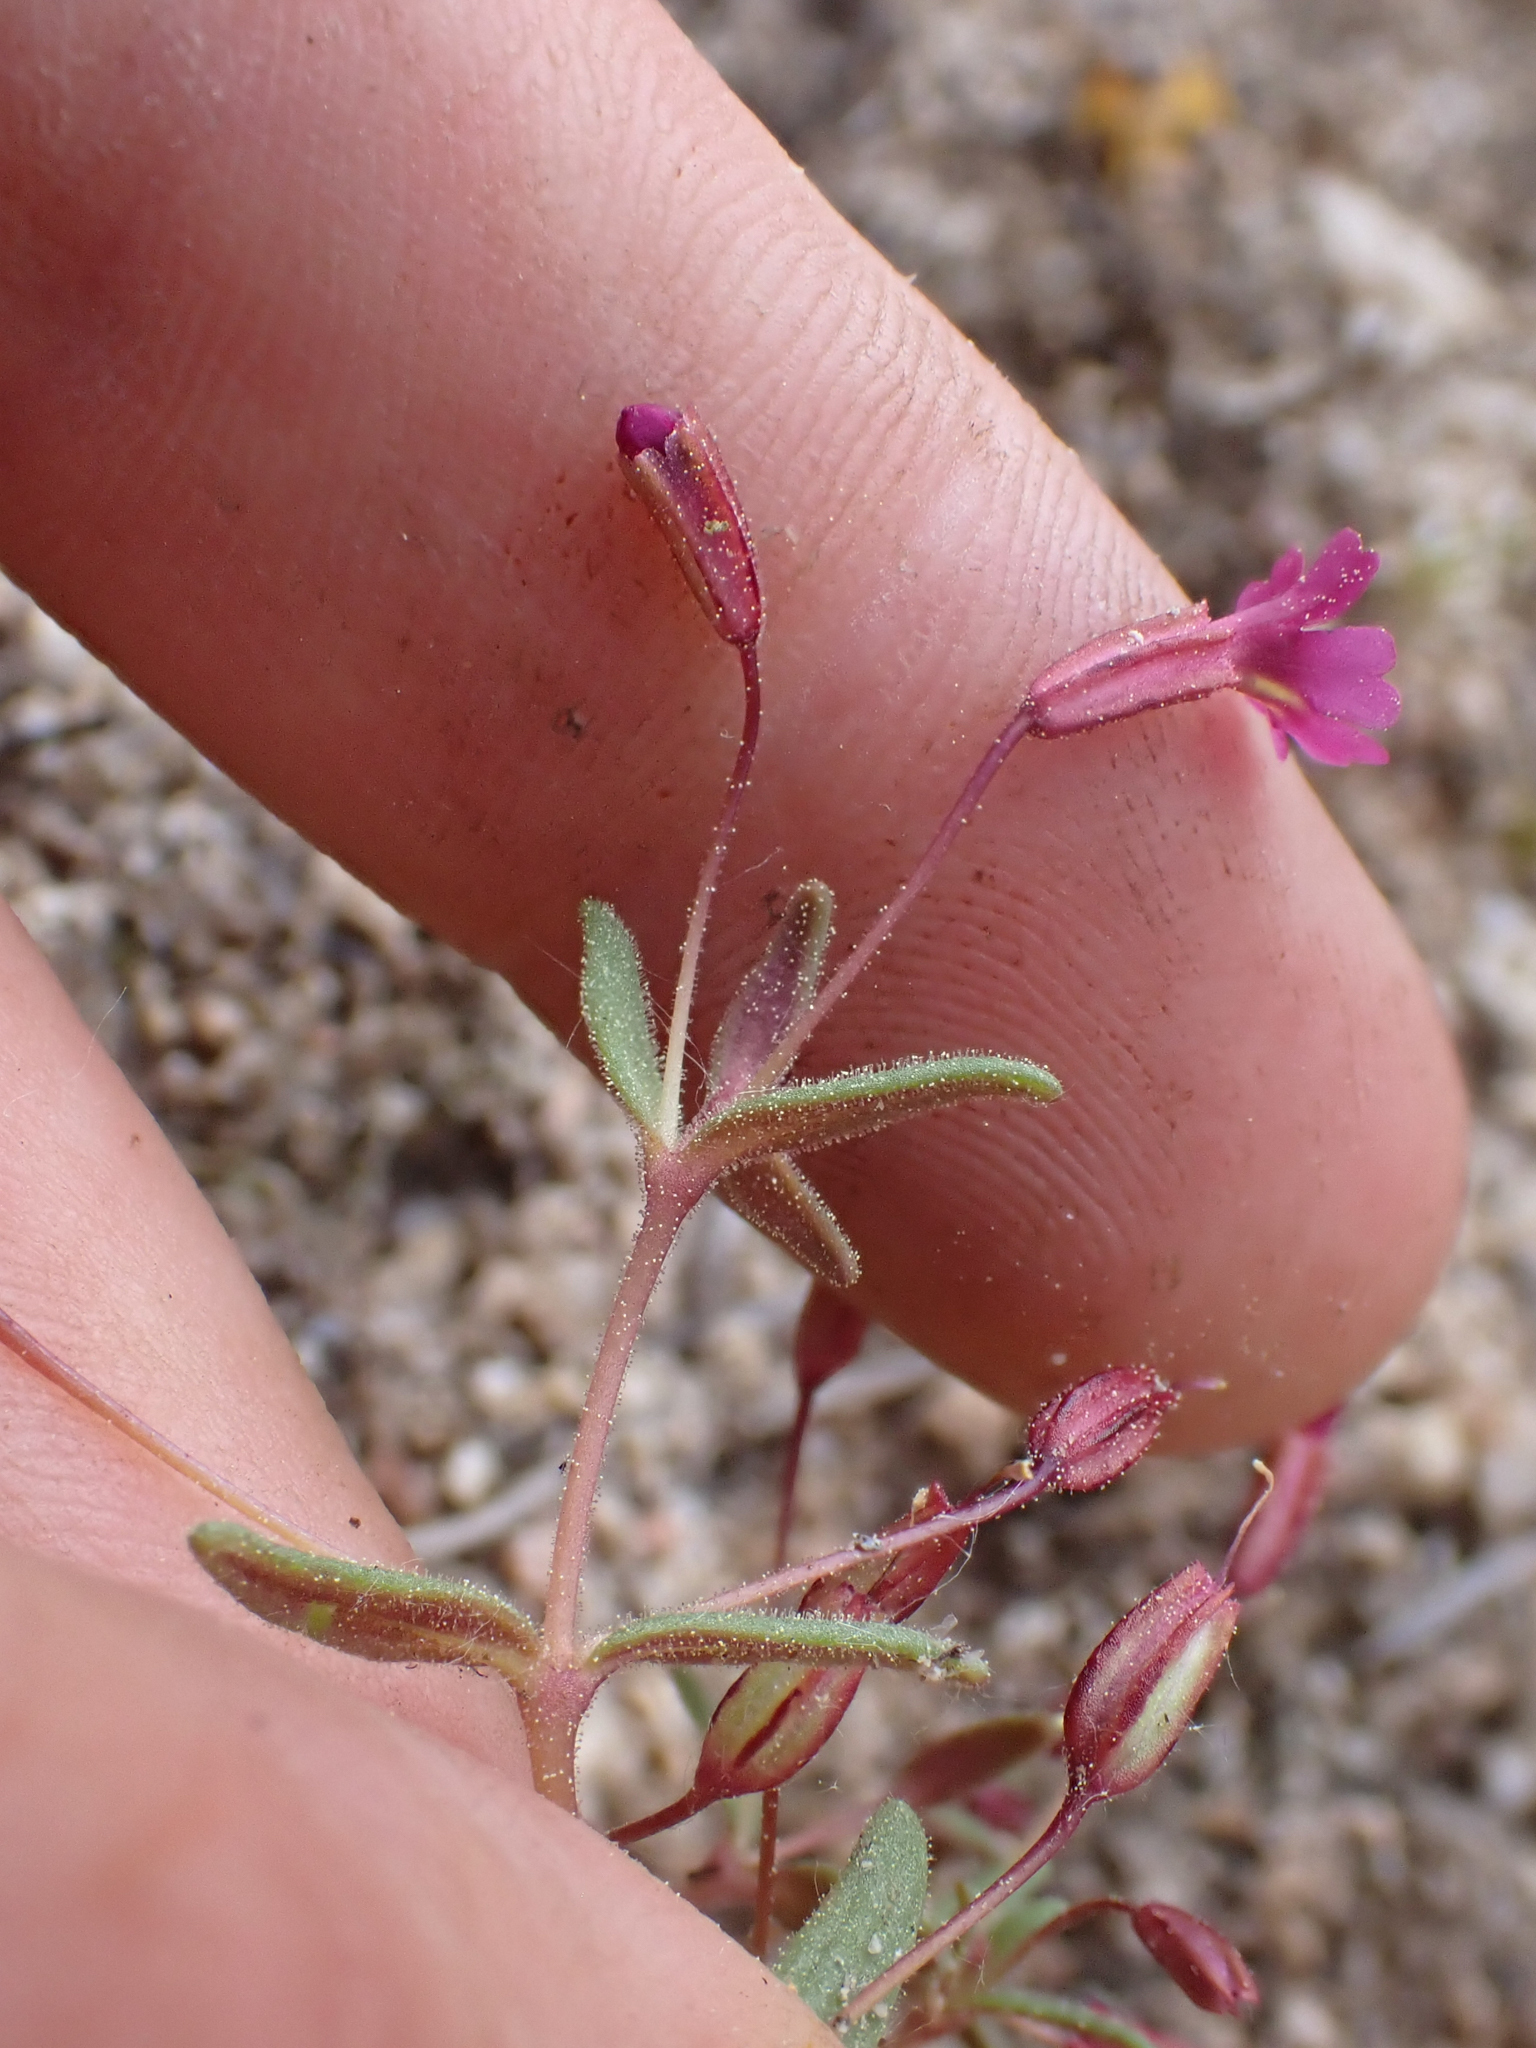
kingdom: Plantae
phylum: Tracheophyta
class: Magnoliopsida
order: Lamiales
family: Phrymaceae
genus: Erythranthe
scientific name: Erythranthe androsacea
